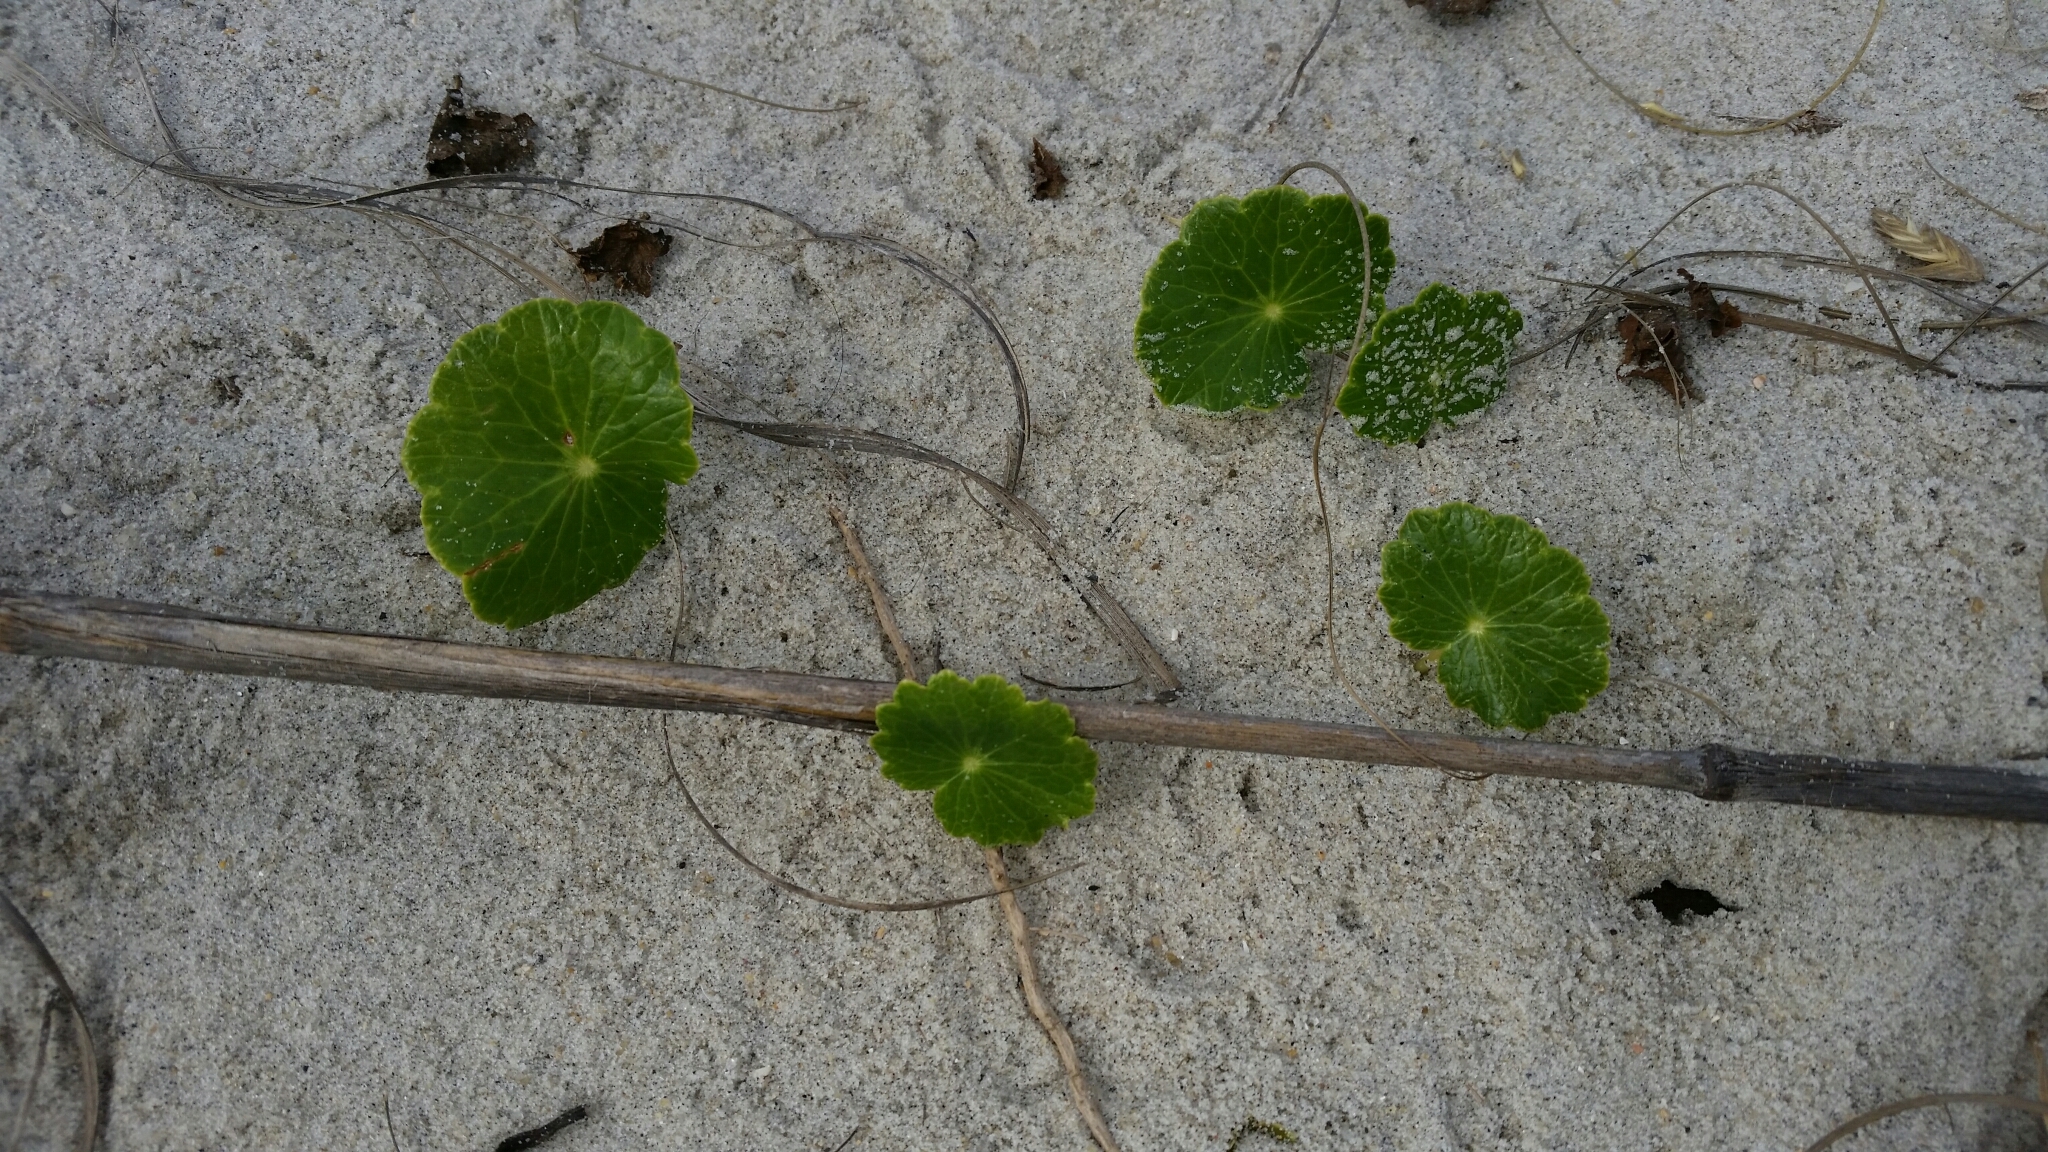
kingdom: Plantae
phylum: Tracheophyta
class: Magnoliopsida
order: Apiales
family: Araliaceae
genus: Hydrocotyle
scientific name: Hydrocotyle bonariensis
